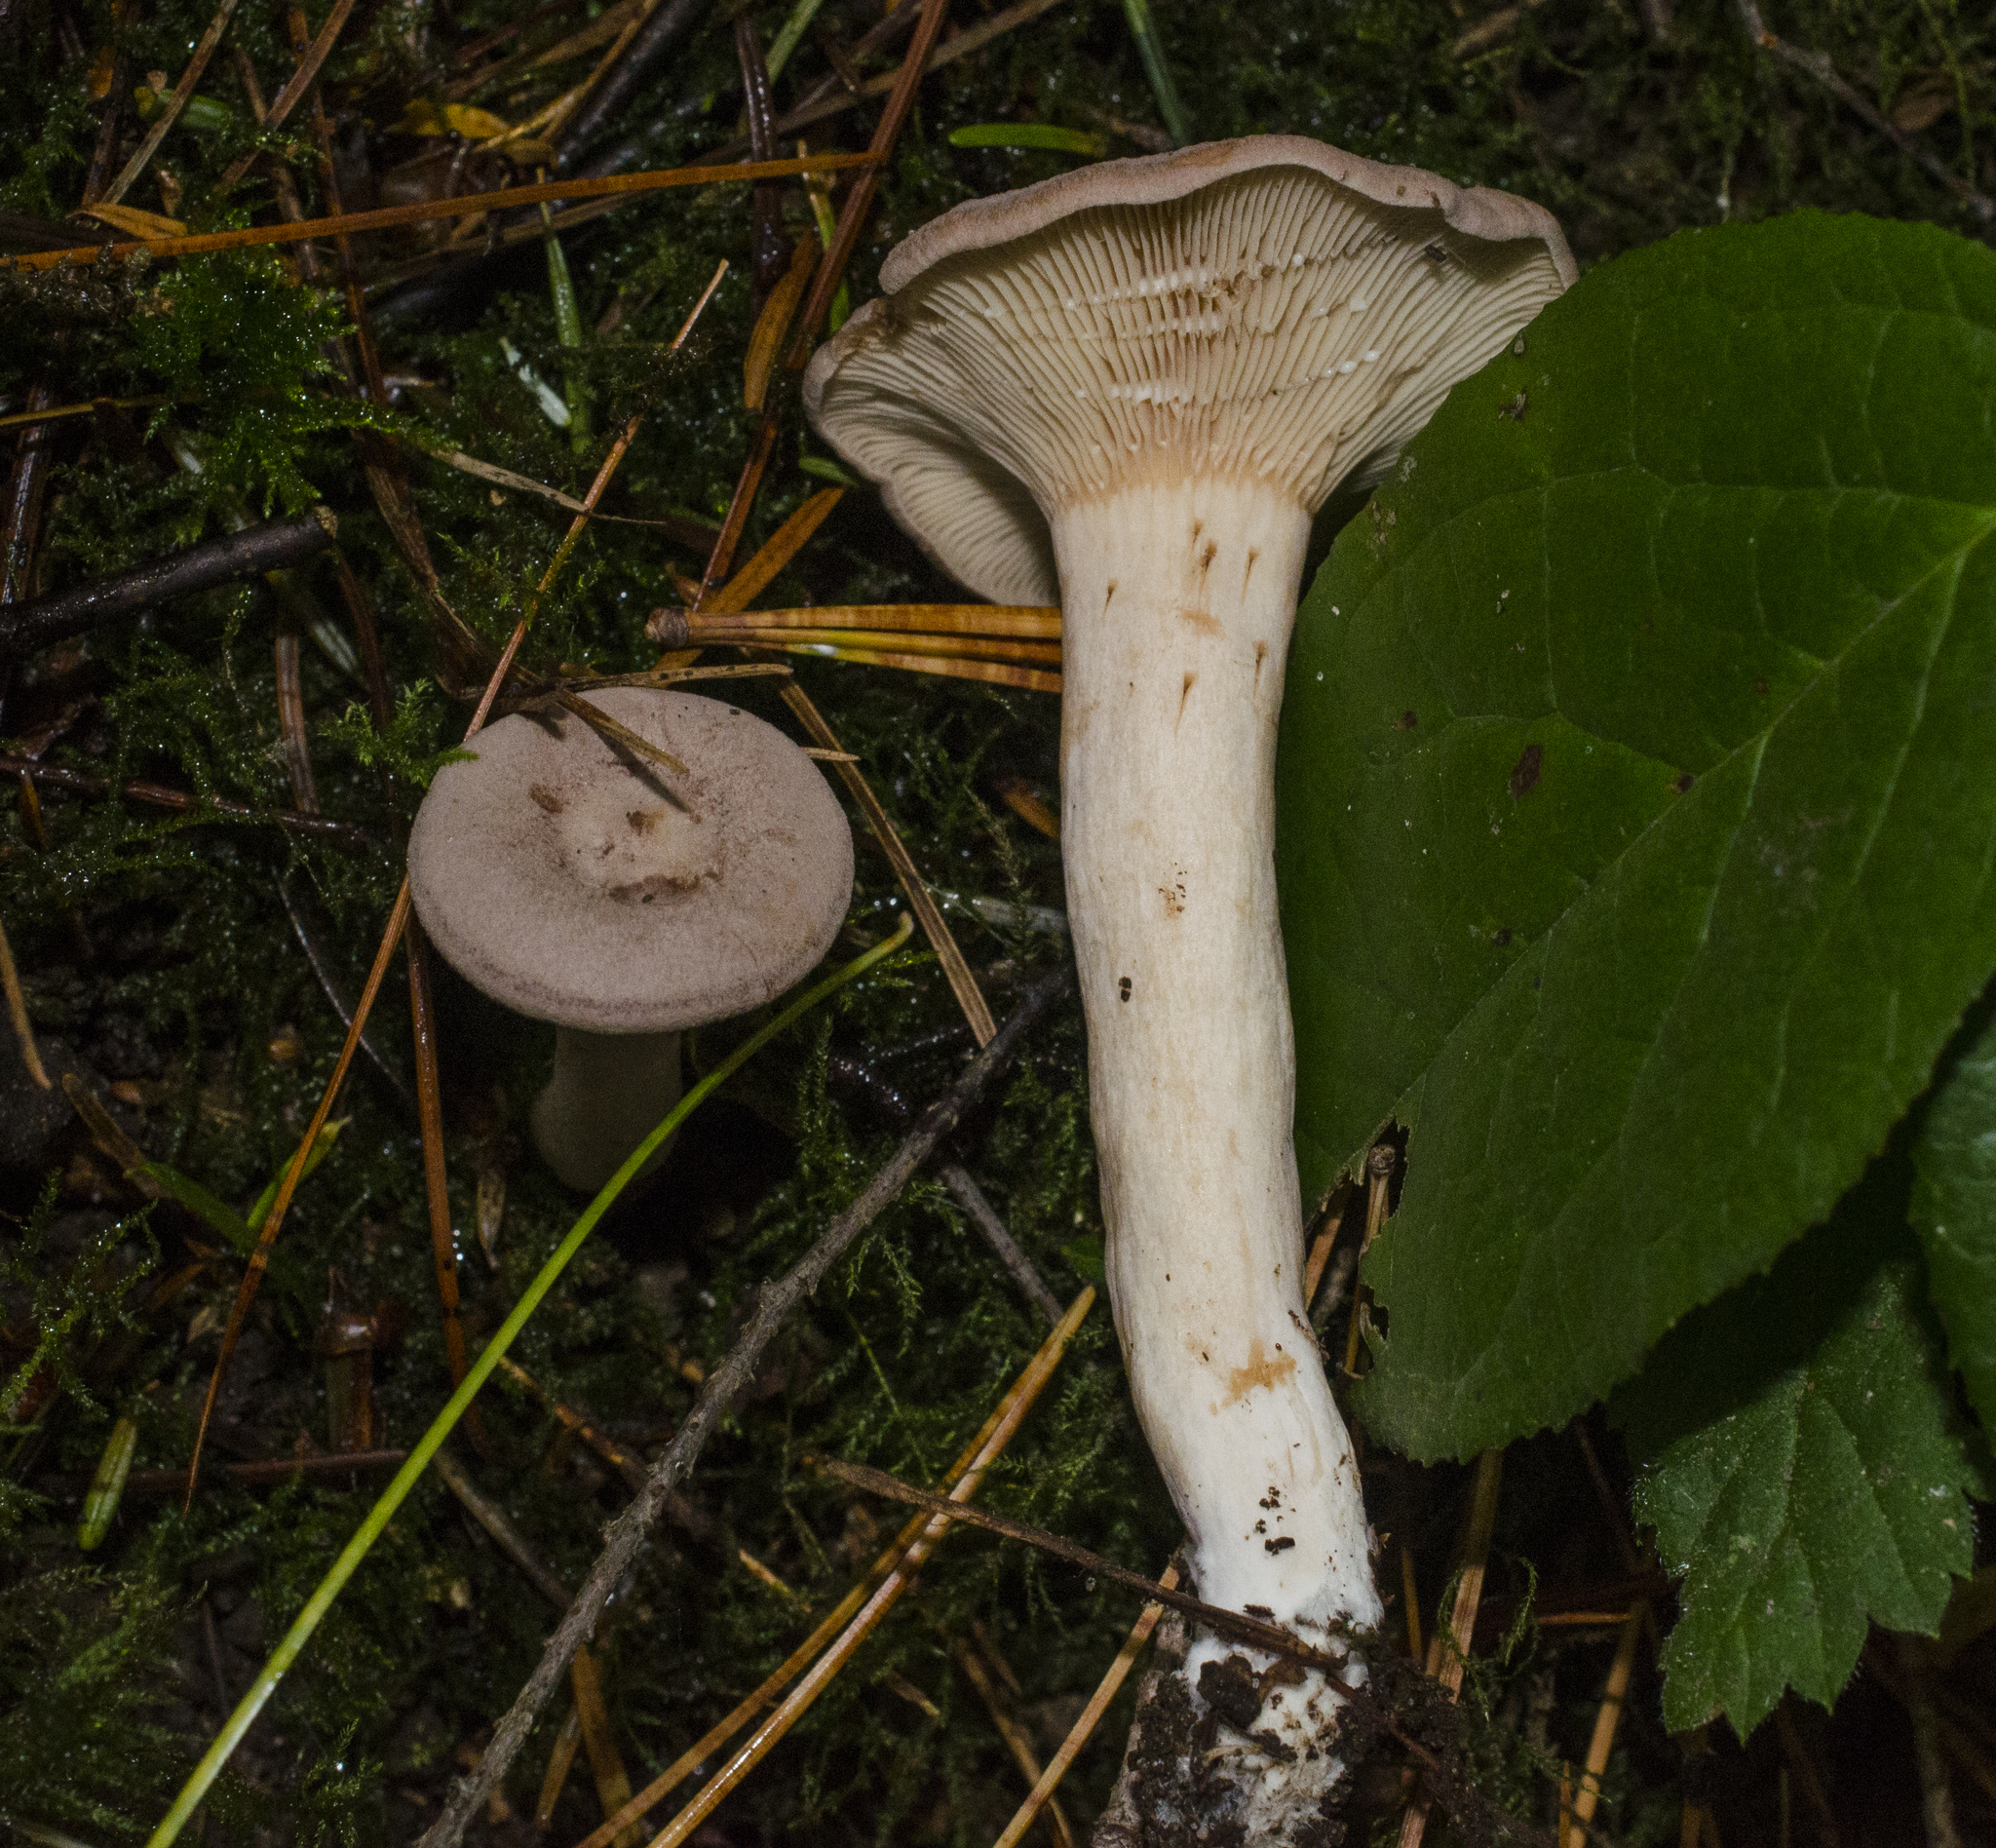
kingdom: Fungi
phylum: Basidiomycota
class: Agaricomycetes
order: Russulales
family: Russulaceae
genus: Lactarius
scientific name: Lactarius glyciosmus
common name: Coconut milkcap
